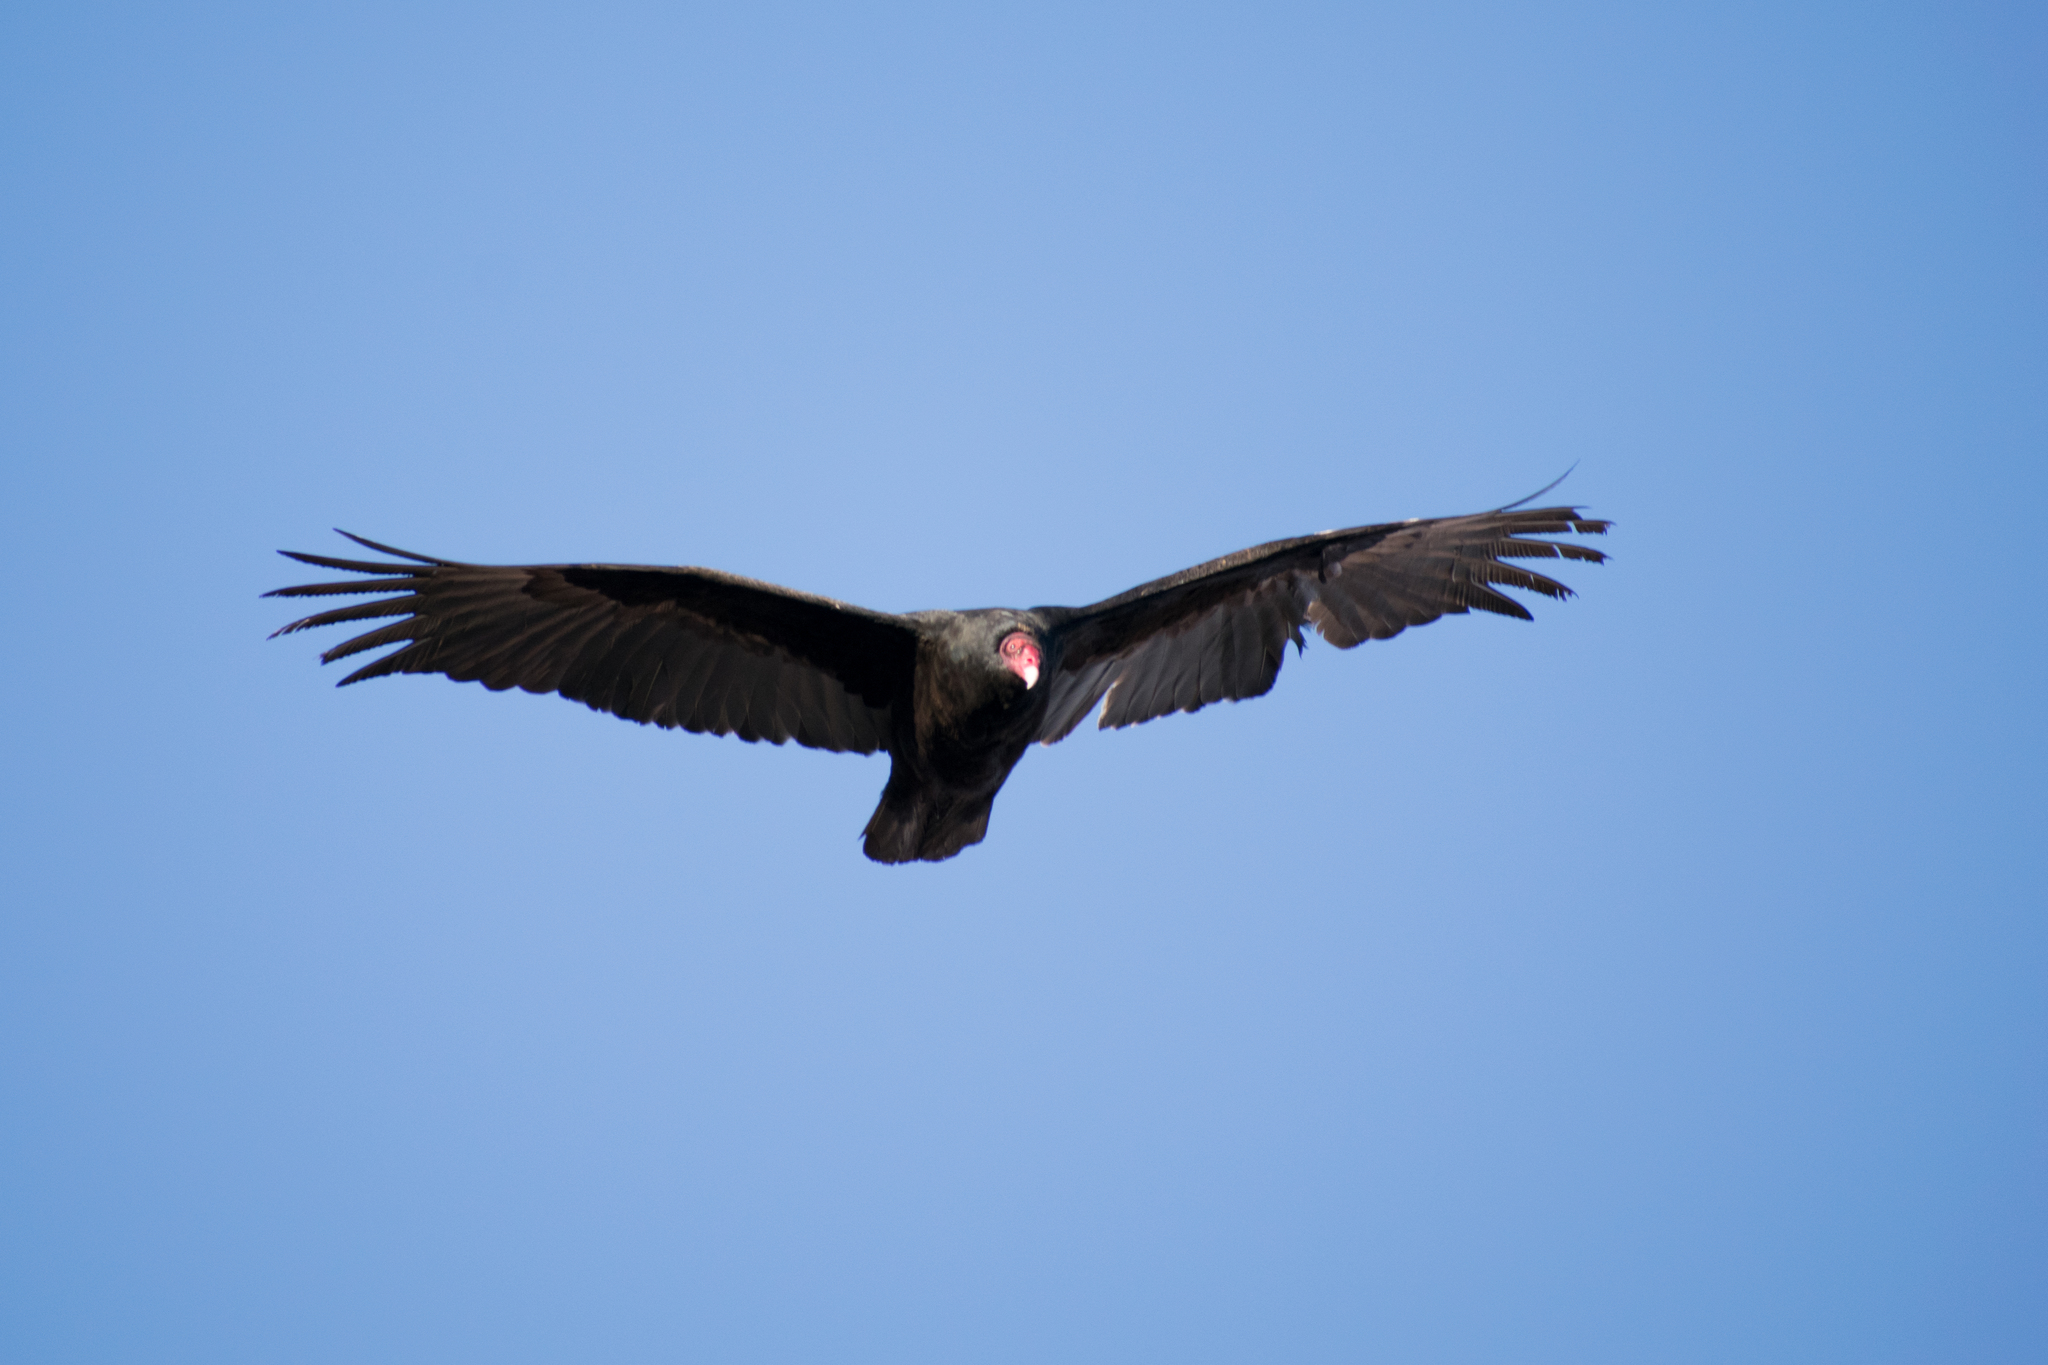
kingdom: Animalia
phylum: Chordata
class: Aves
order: Accipitriformes
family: Cathartidae
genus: Cathartes
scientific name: Cathartes aura
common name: Turkey vulture
